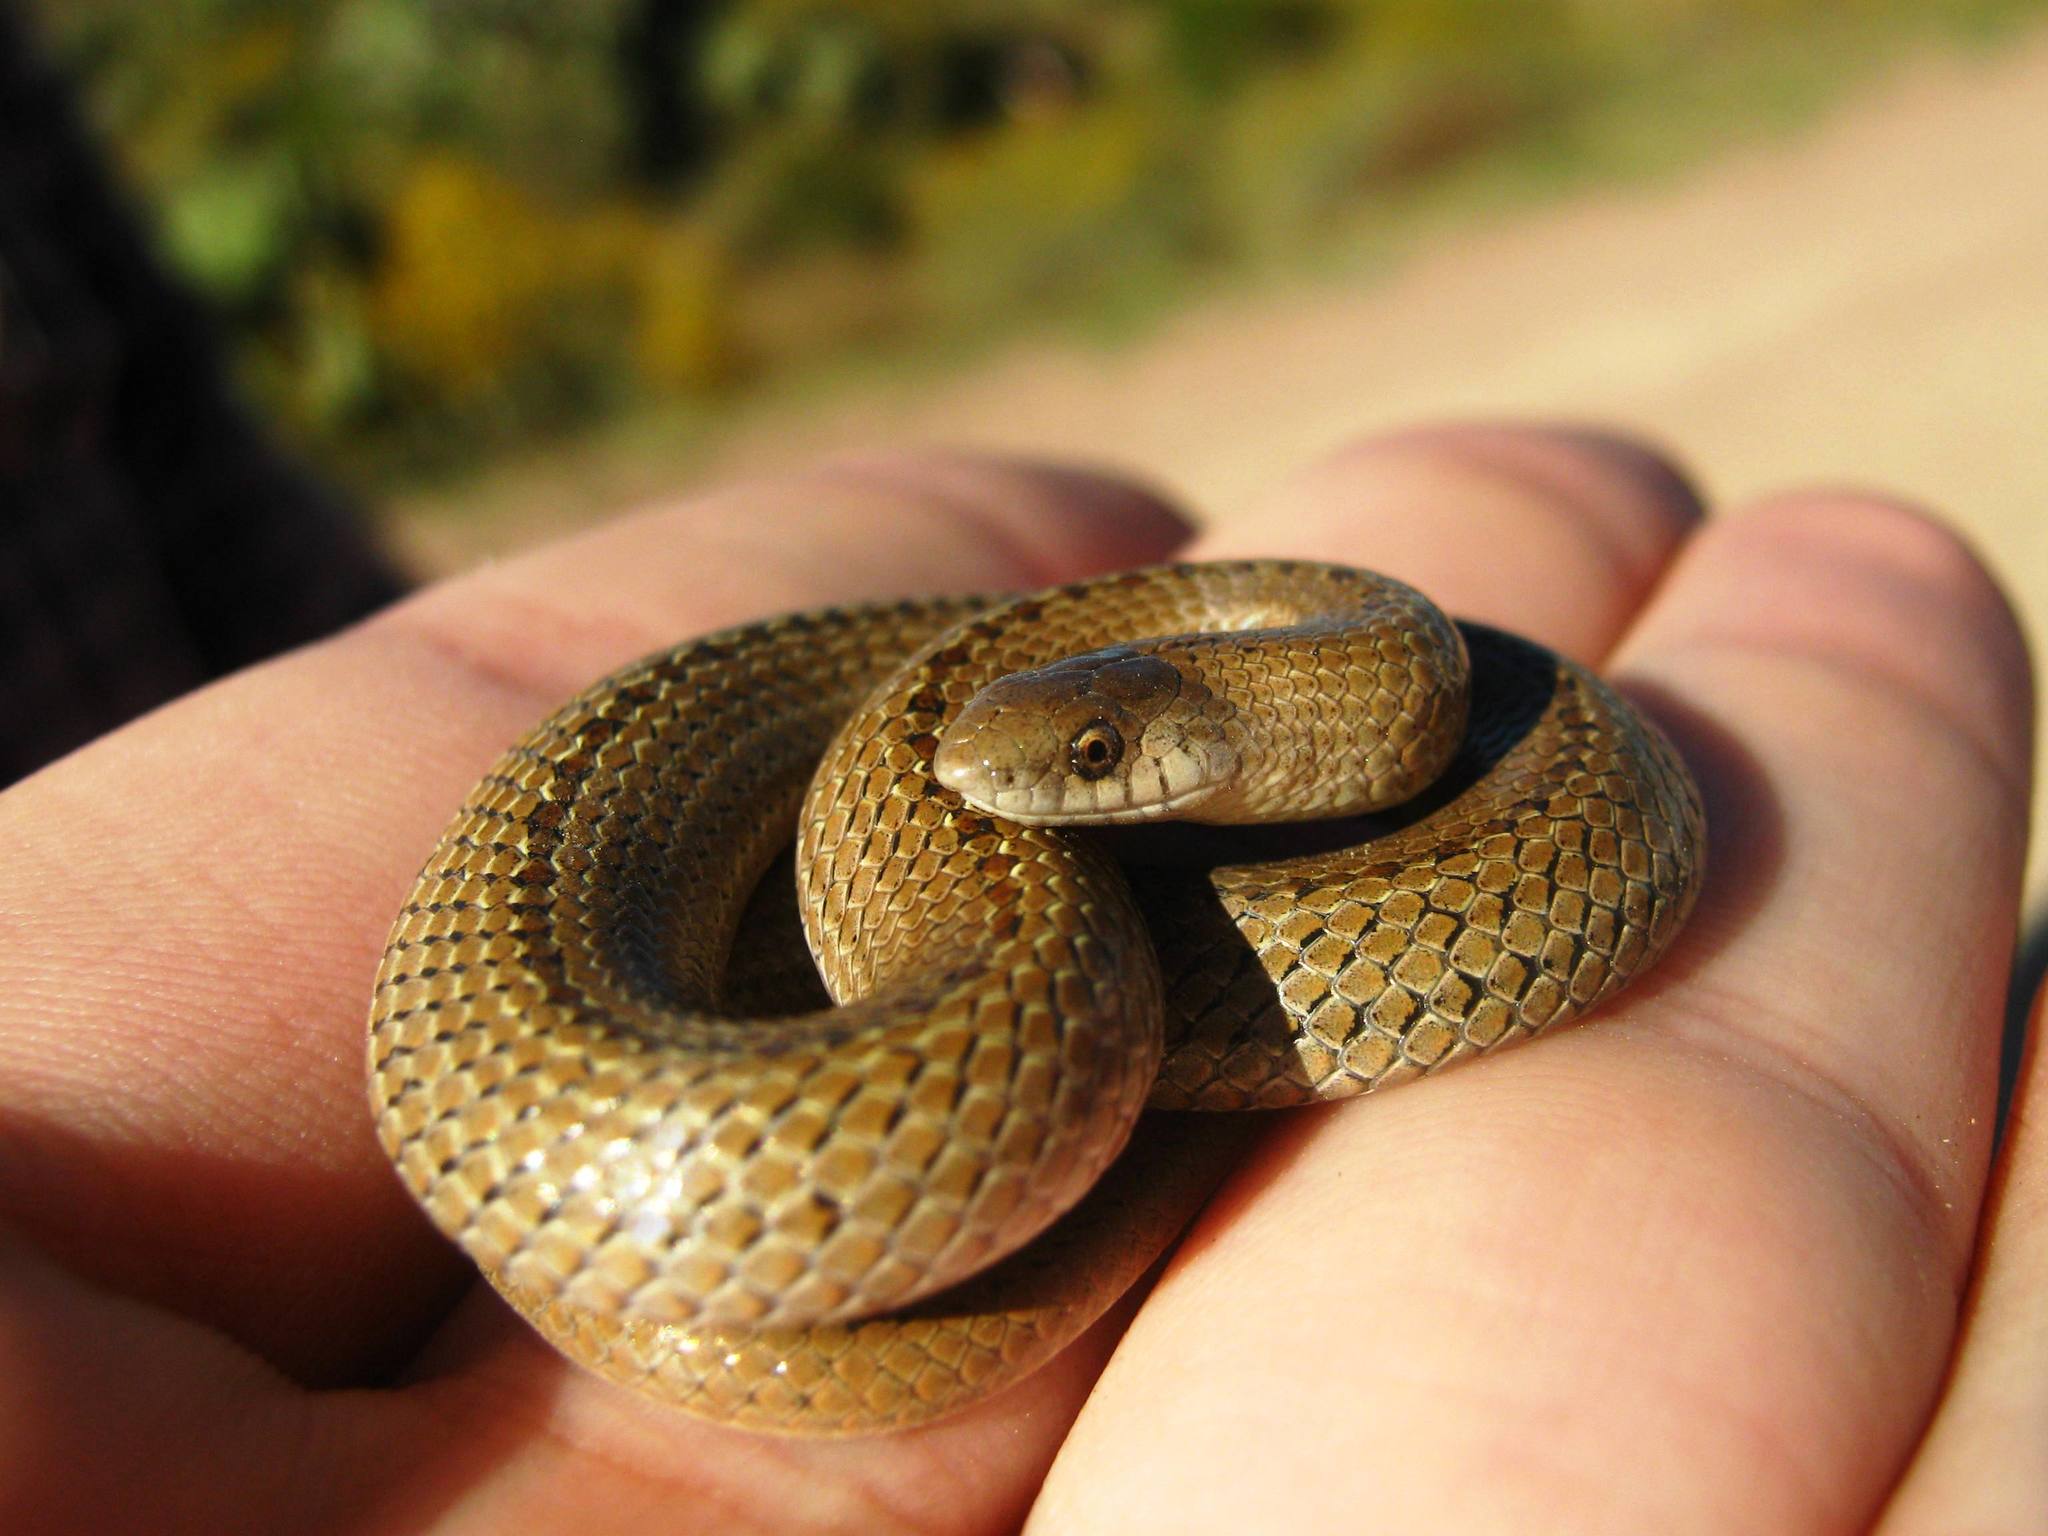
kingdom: Animalia
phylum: Chordata
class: Squamata
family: Colubridae
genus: Conopsis
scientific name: Conopsis lineata
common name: Lined tolucan earthsnake
